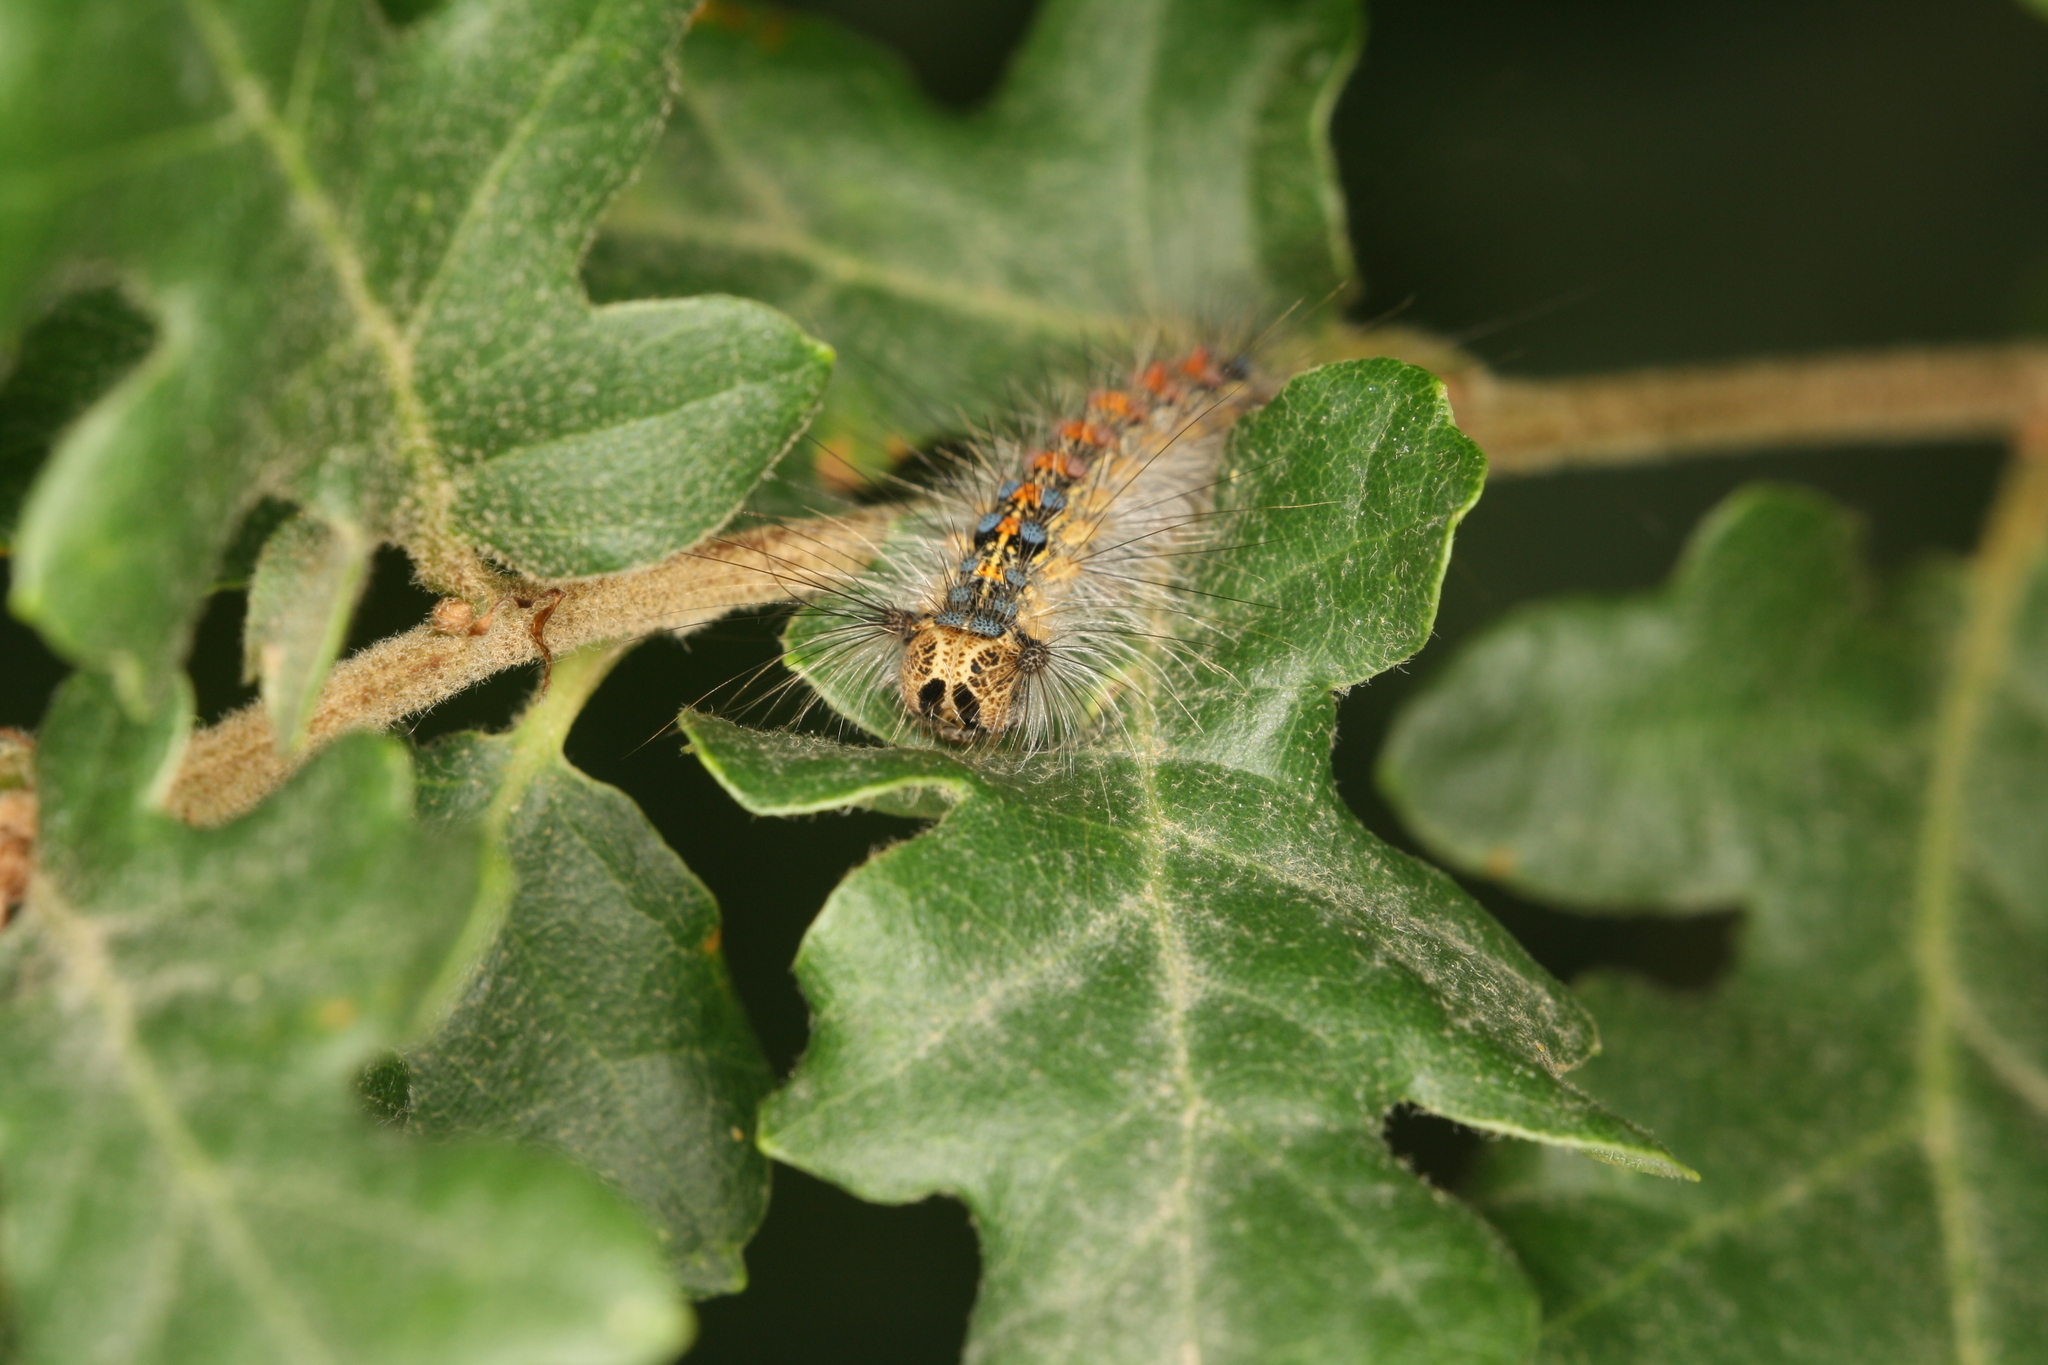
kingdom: Animalia
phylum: Arthropoda
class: Insecta
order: Lepidoptera
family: Erebidae
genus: Lymantria
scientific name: Lymantria dispar
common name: Gypsy moth
